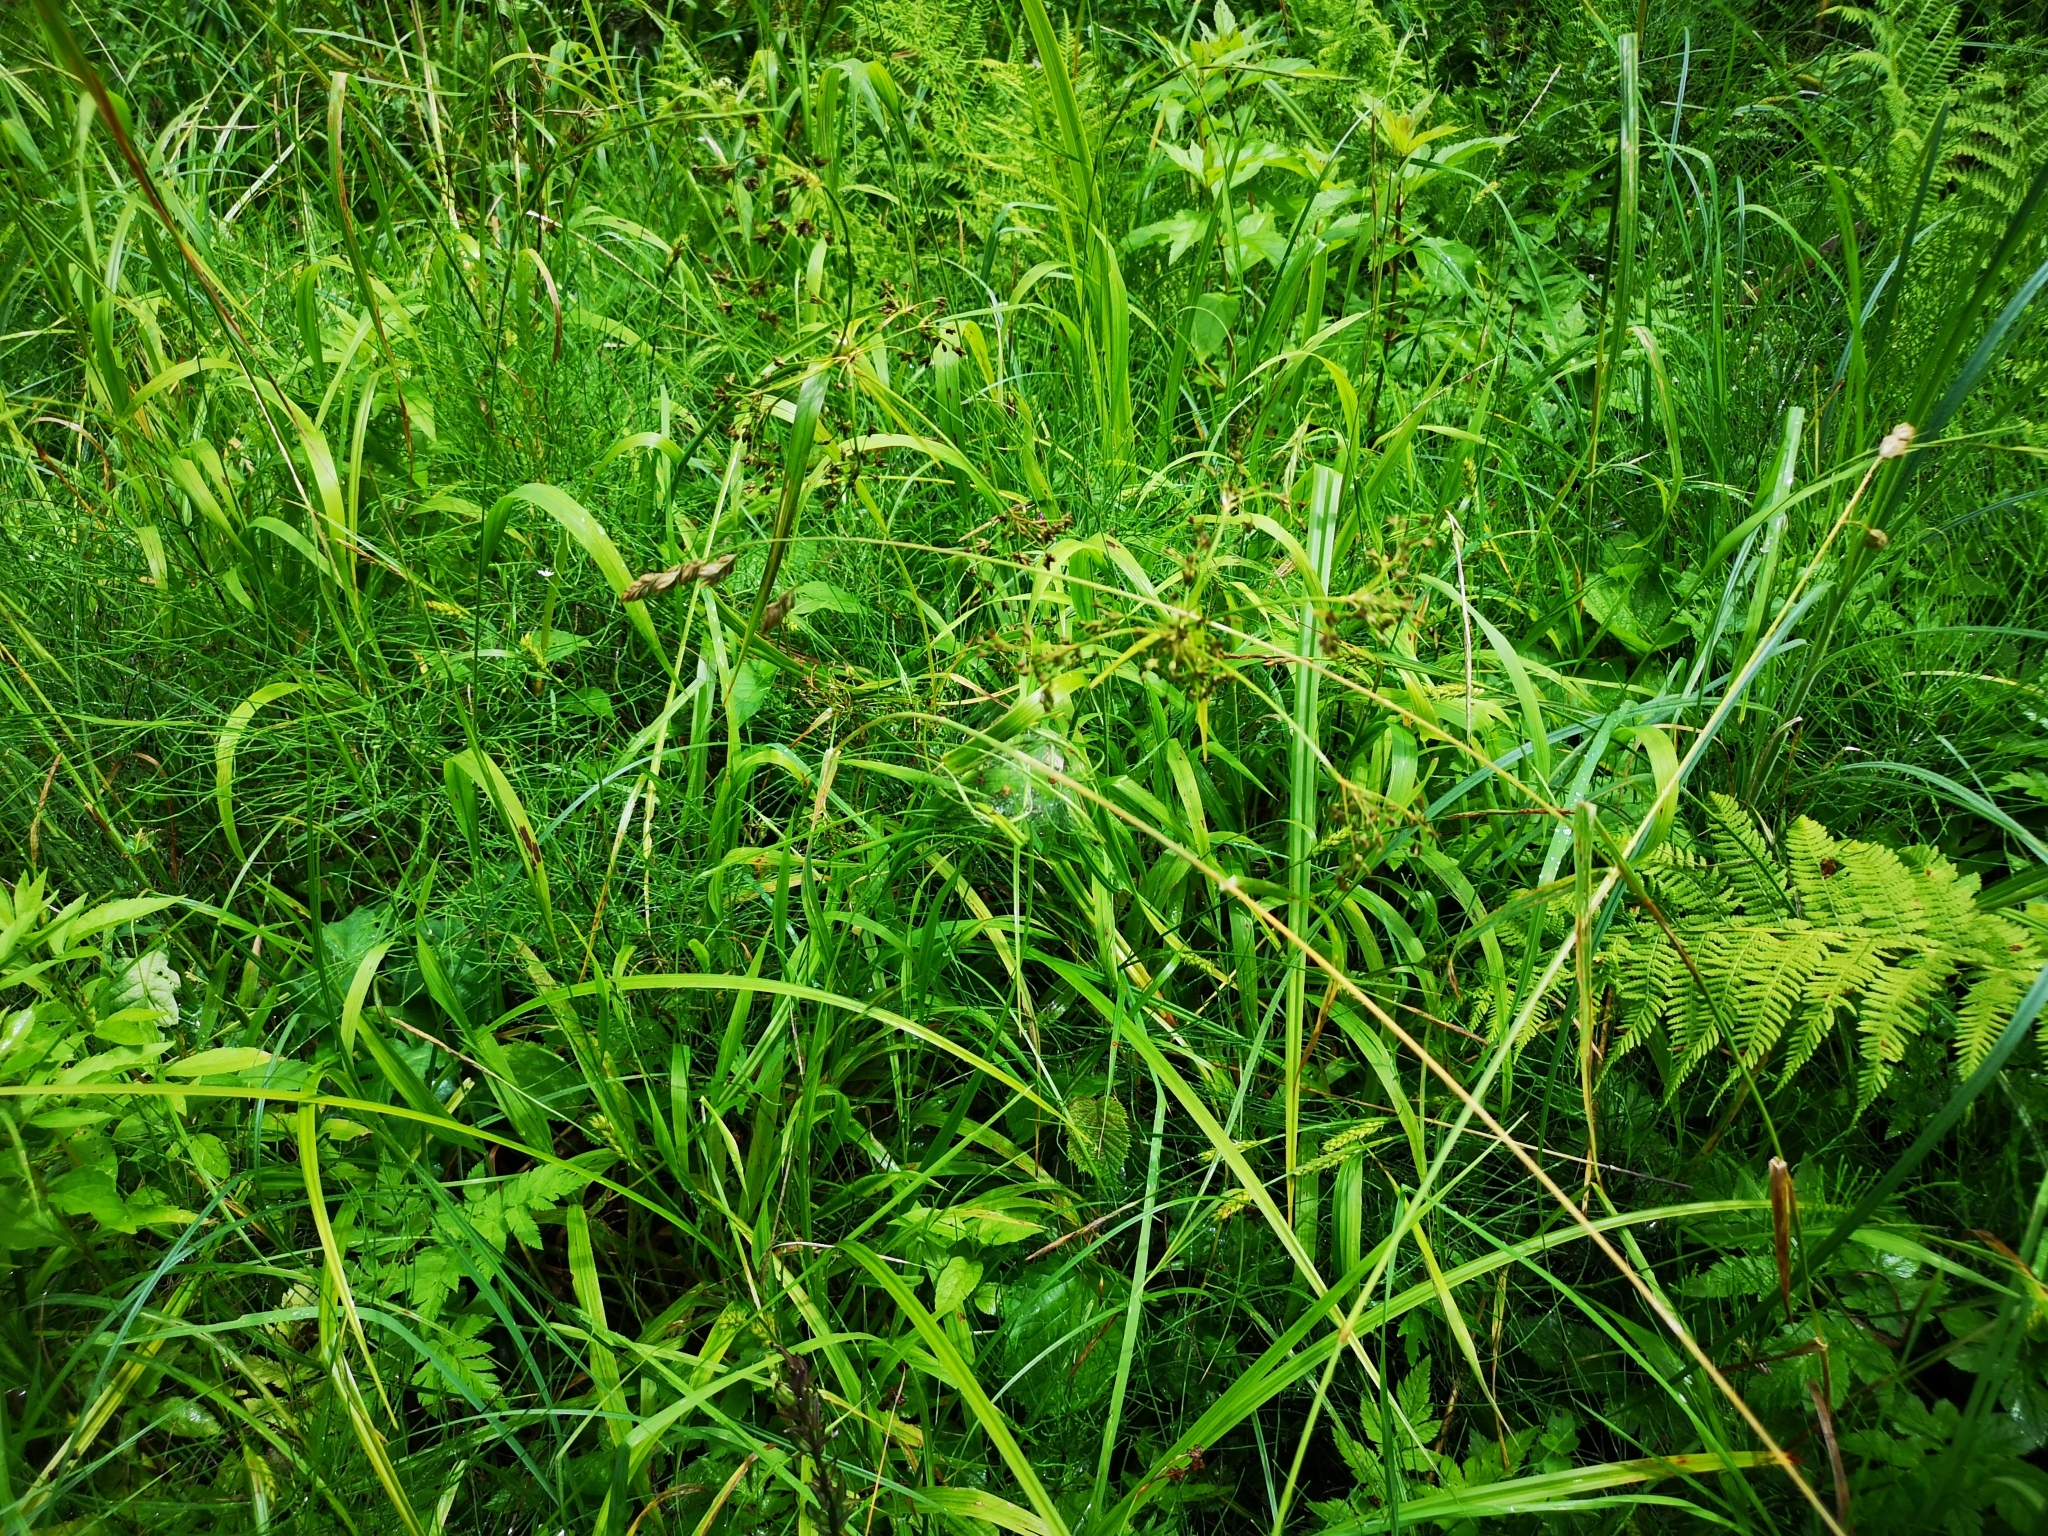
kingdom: Plantae
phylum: Tracheophyta
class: Liliopsida
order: Poales
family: Cyperaceae
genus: Scirpus
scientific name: Scirpus sylvaticus
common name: Wood club-rush
